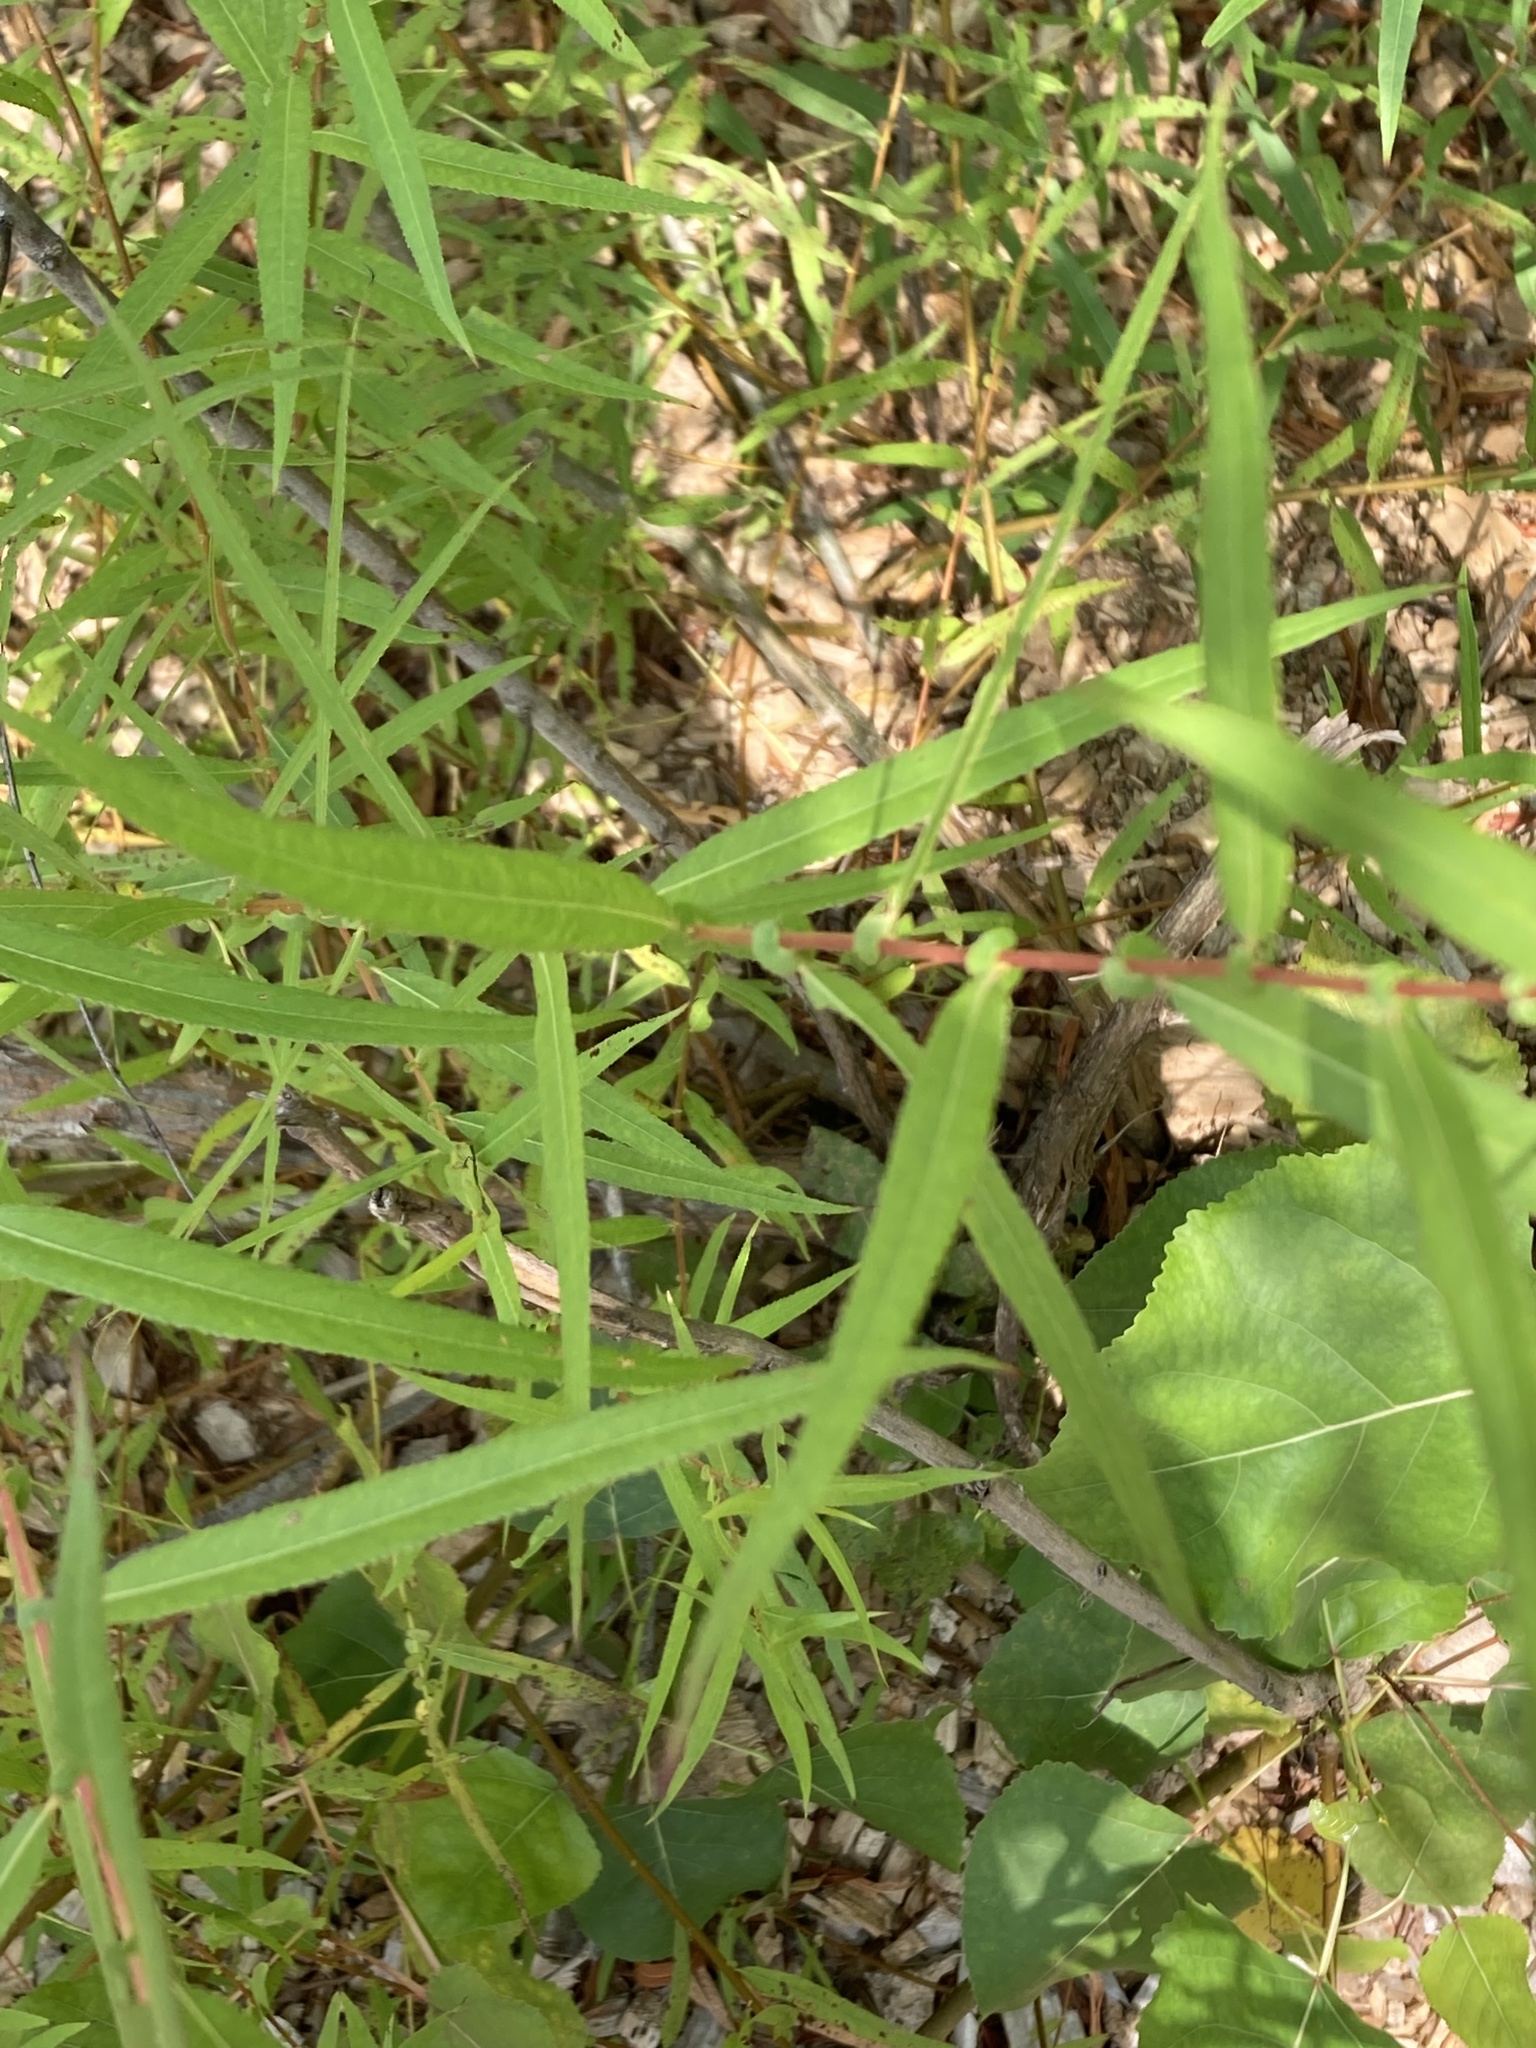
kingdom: Plantae
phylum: Tracheophyta
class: Magnoliopsida
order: Malpighiales
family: Salicaceae
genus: Salix
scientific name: Salix nigra
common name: Black willow
